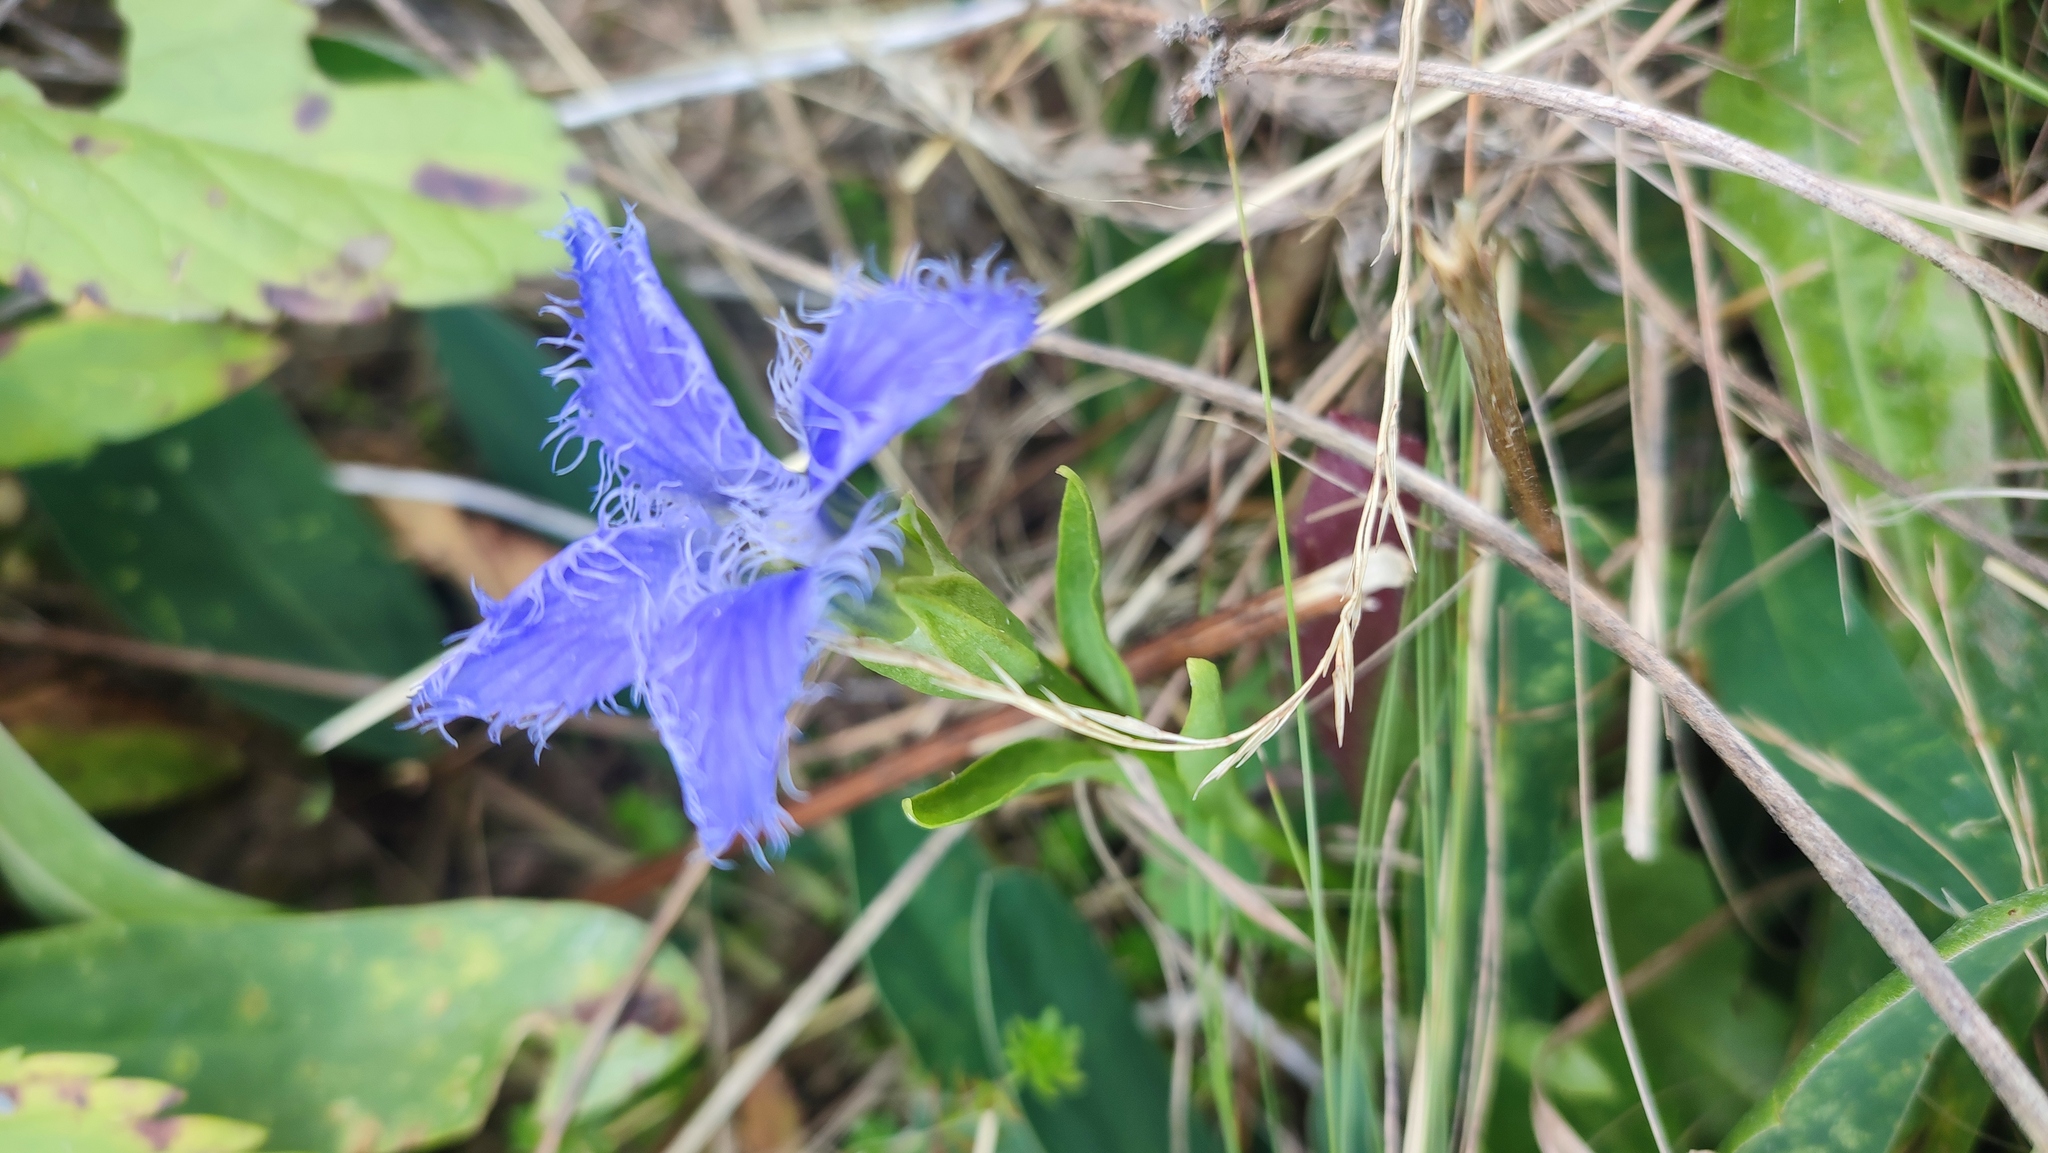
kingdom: Plantae
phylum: Tracheophyta
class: Magnoliopsida
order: Gentianales
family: Gentianaceae
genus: Gentianopsis
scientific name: Gentianopsis ciliata
